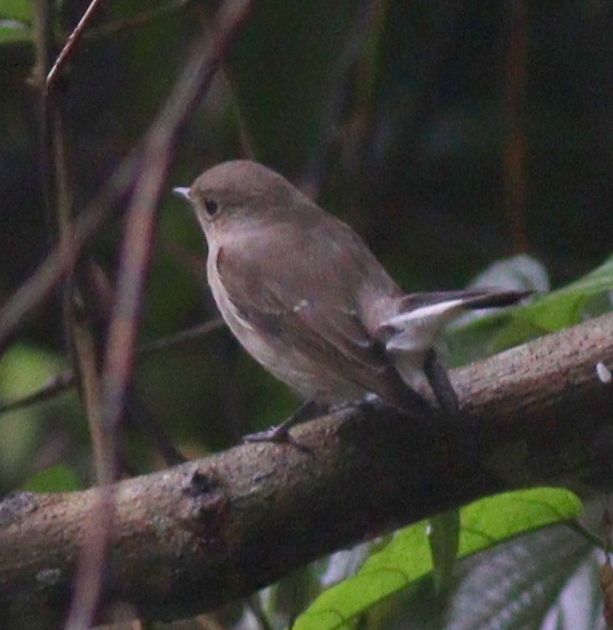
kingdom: Animalia
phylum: Chordata
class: Aves
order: Passeriformes
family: Muscicapidae
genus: Ficedula
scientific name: Ficedula albicilla
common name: Taiga flycatcher
